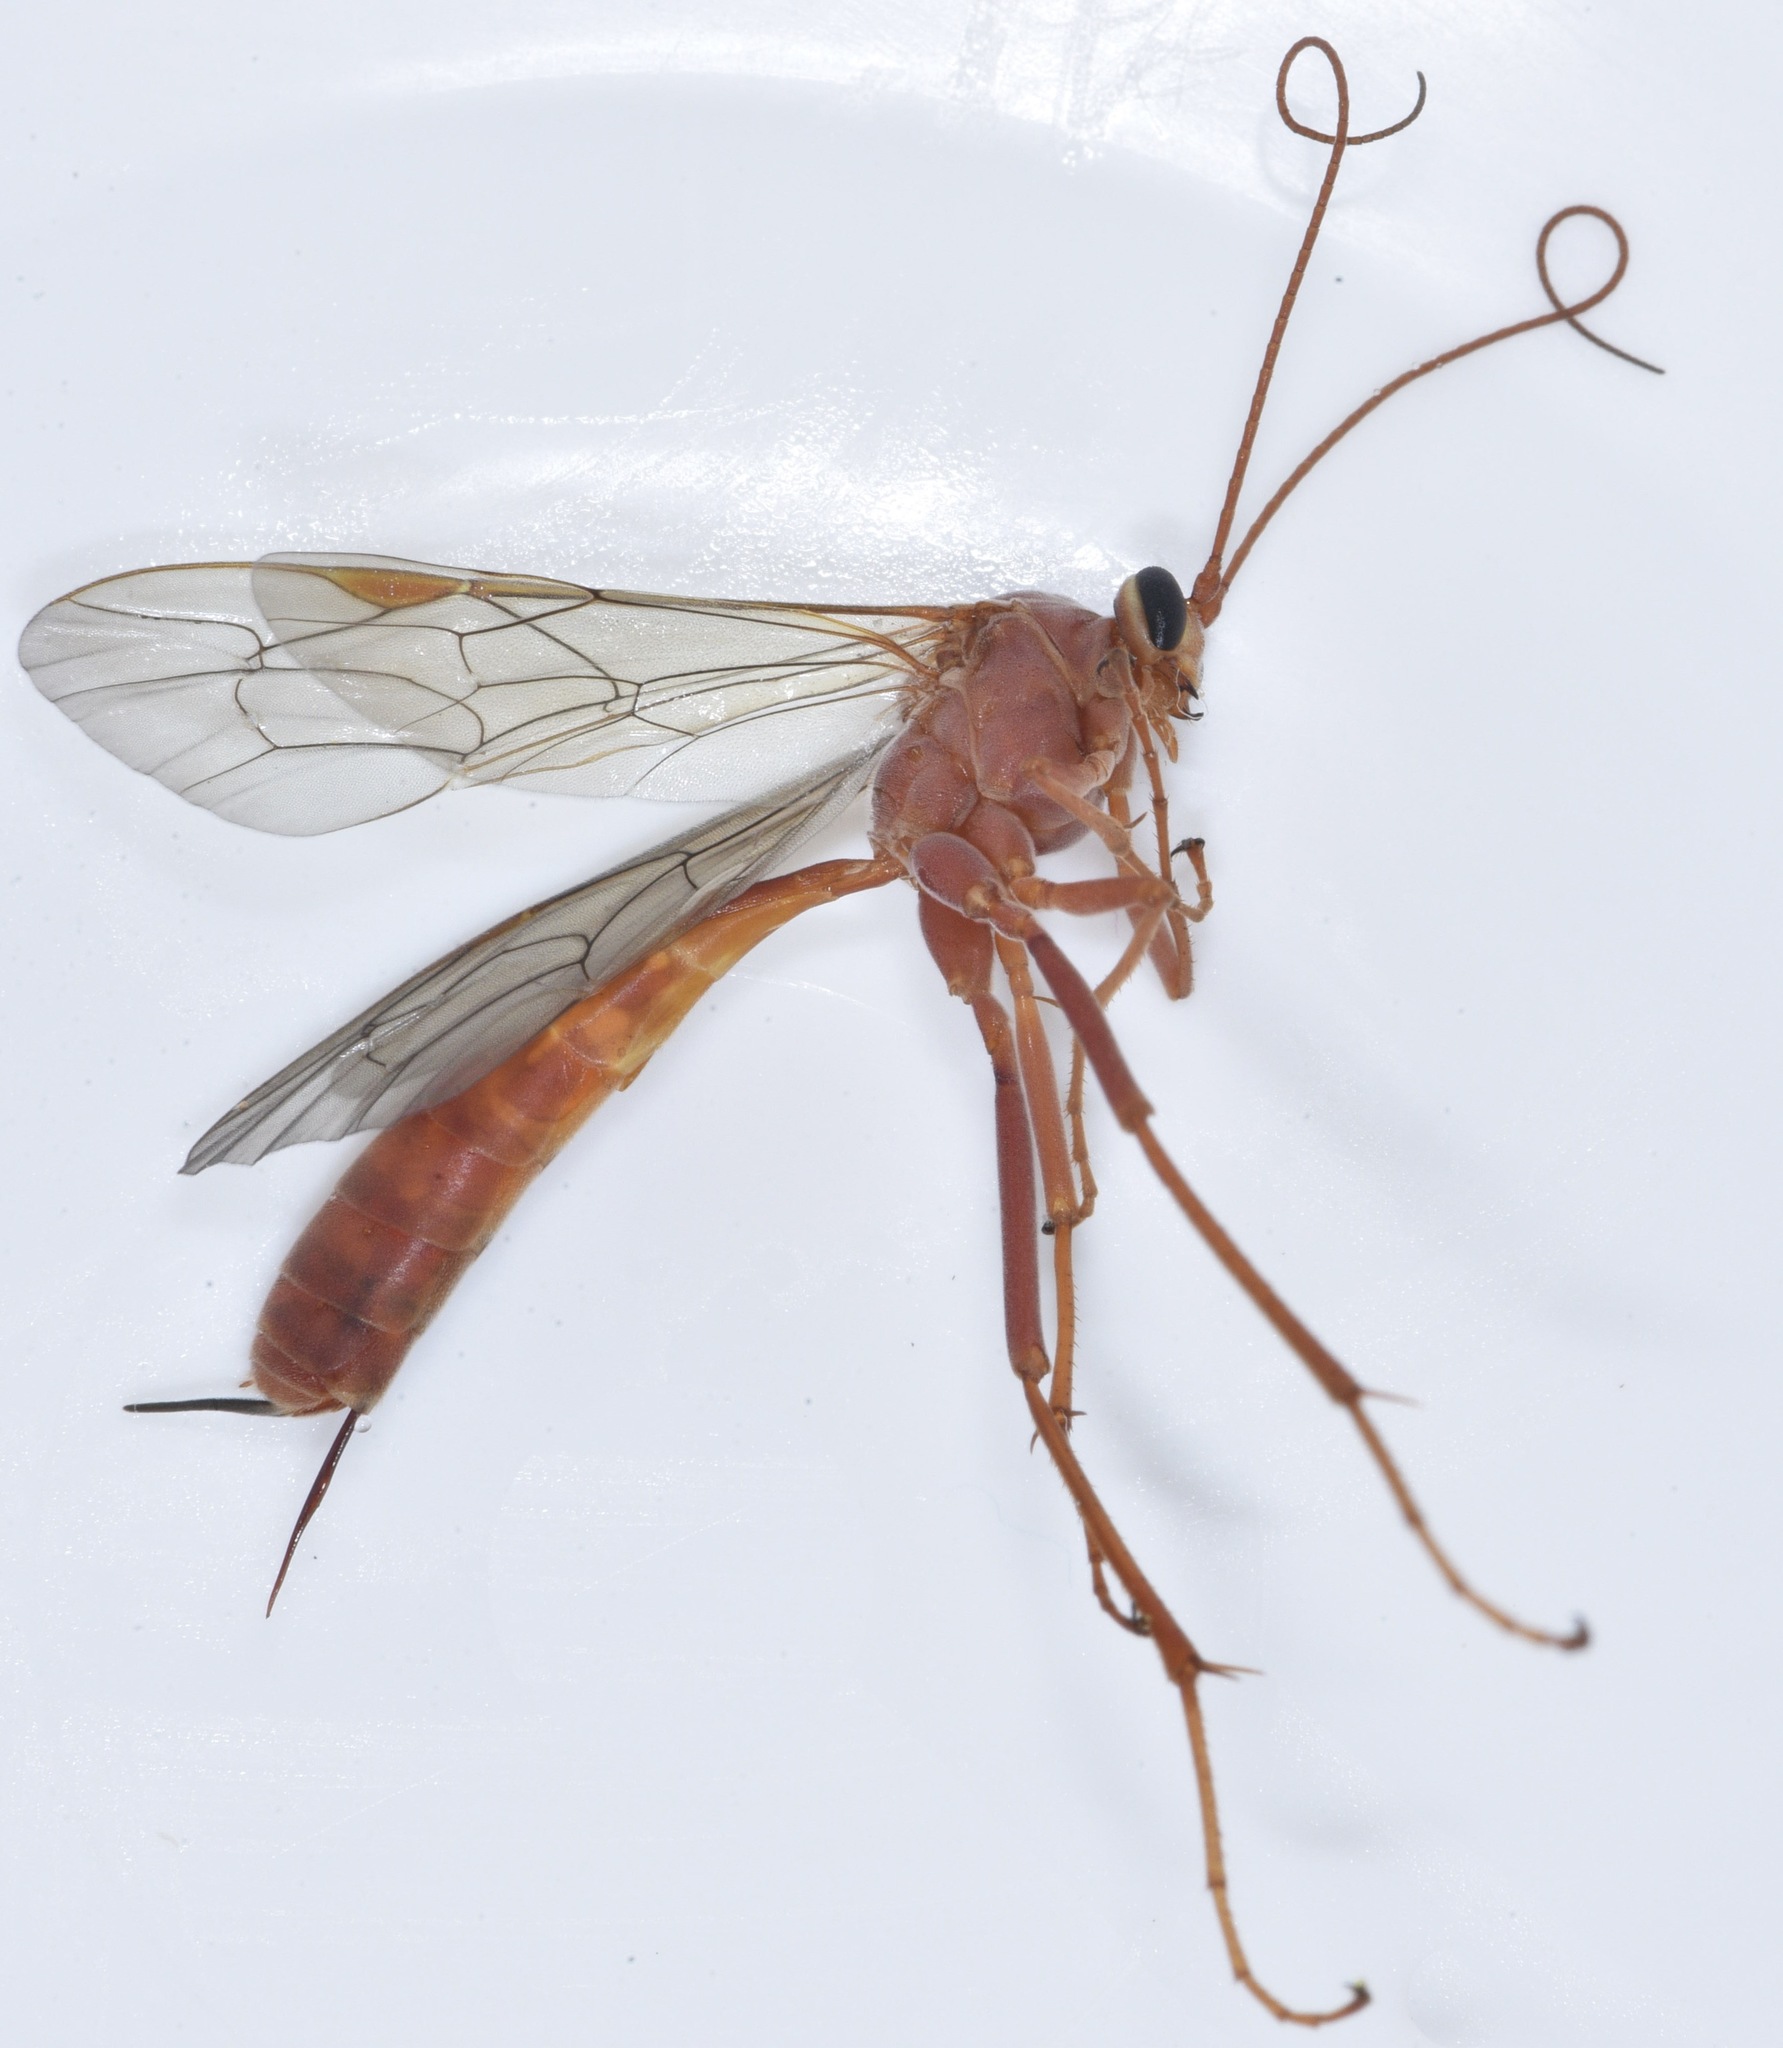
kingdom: Animalia
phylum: Arthropoda
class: Insecta
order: Hymenoptera
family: Ichneumonidae
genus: Netelia
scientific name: Netelia
